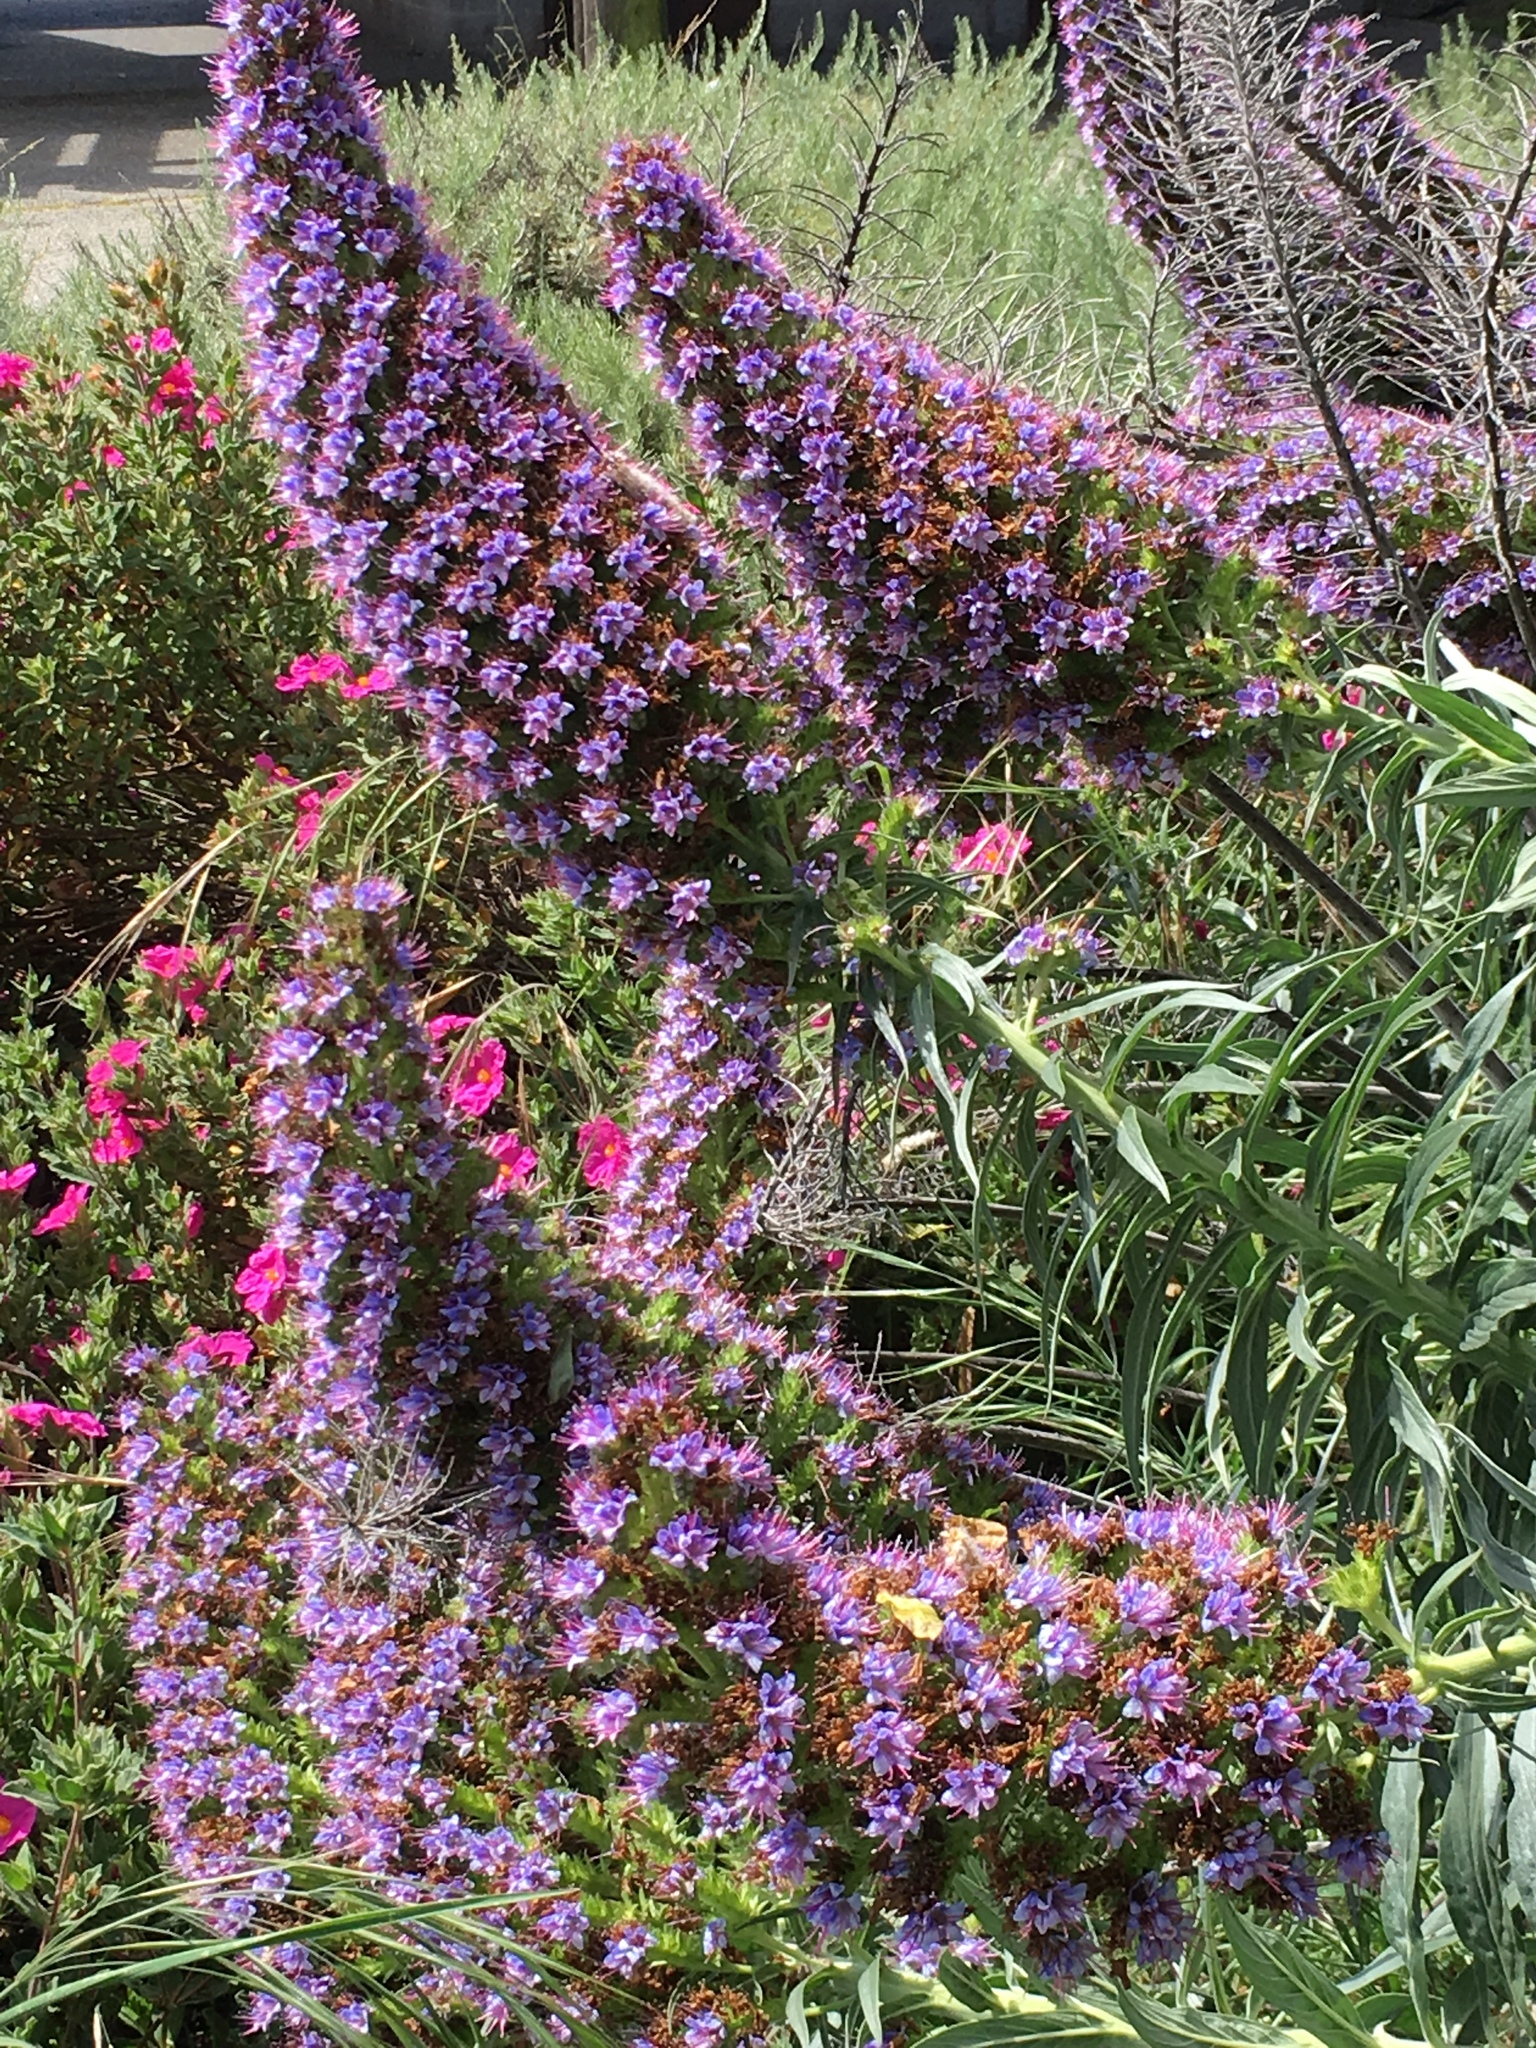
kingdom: Plantae
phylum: Tracheophyta
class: Magnoliopsida
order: Boraginales
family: Boraginaceae
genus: Echium
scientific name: Echium candicans
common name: Pride of madeira
